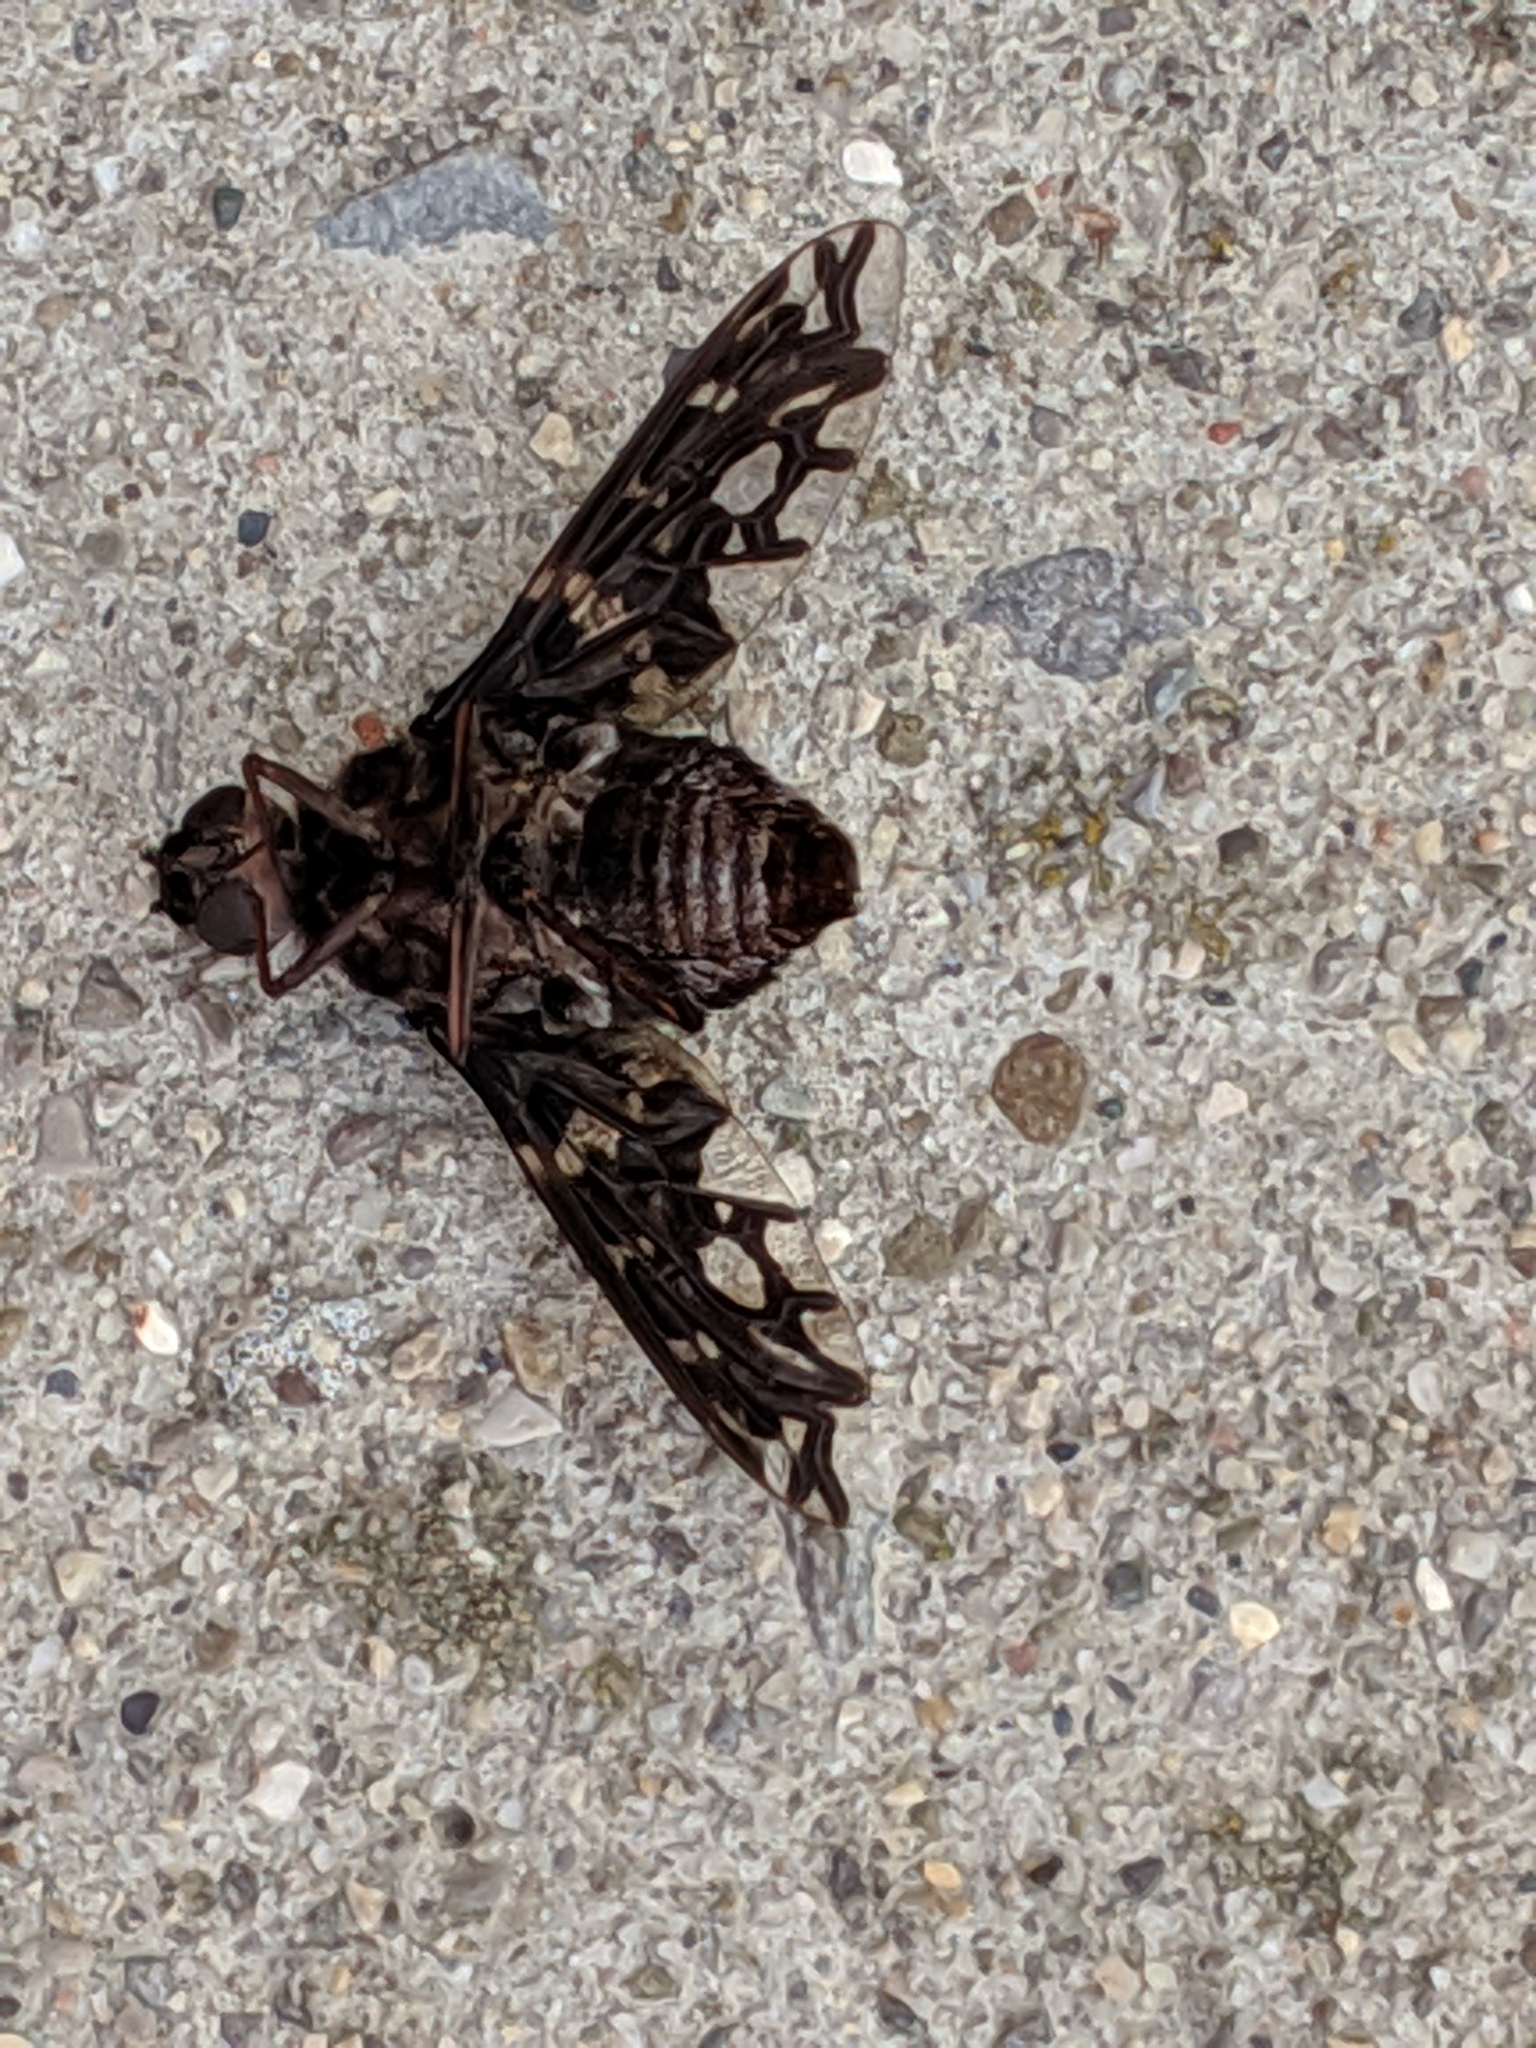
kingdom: Animalia
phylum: Arthropoda
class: Insecta
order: Diptera
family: Bombyliidae
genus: Xenox
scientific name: Xenox tigrinus
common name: Tiger bee fly
